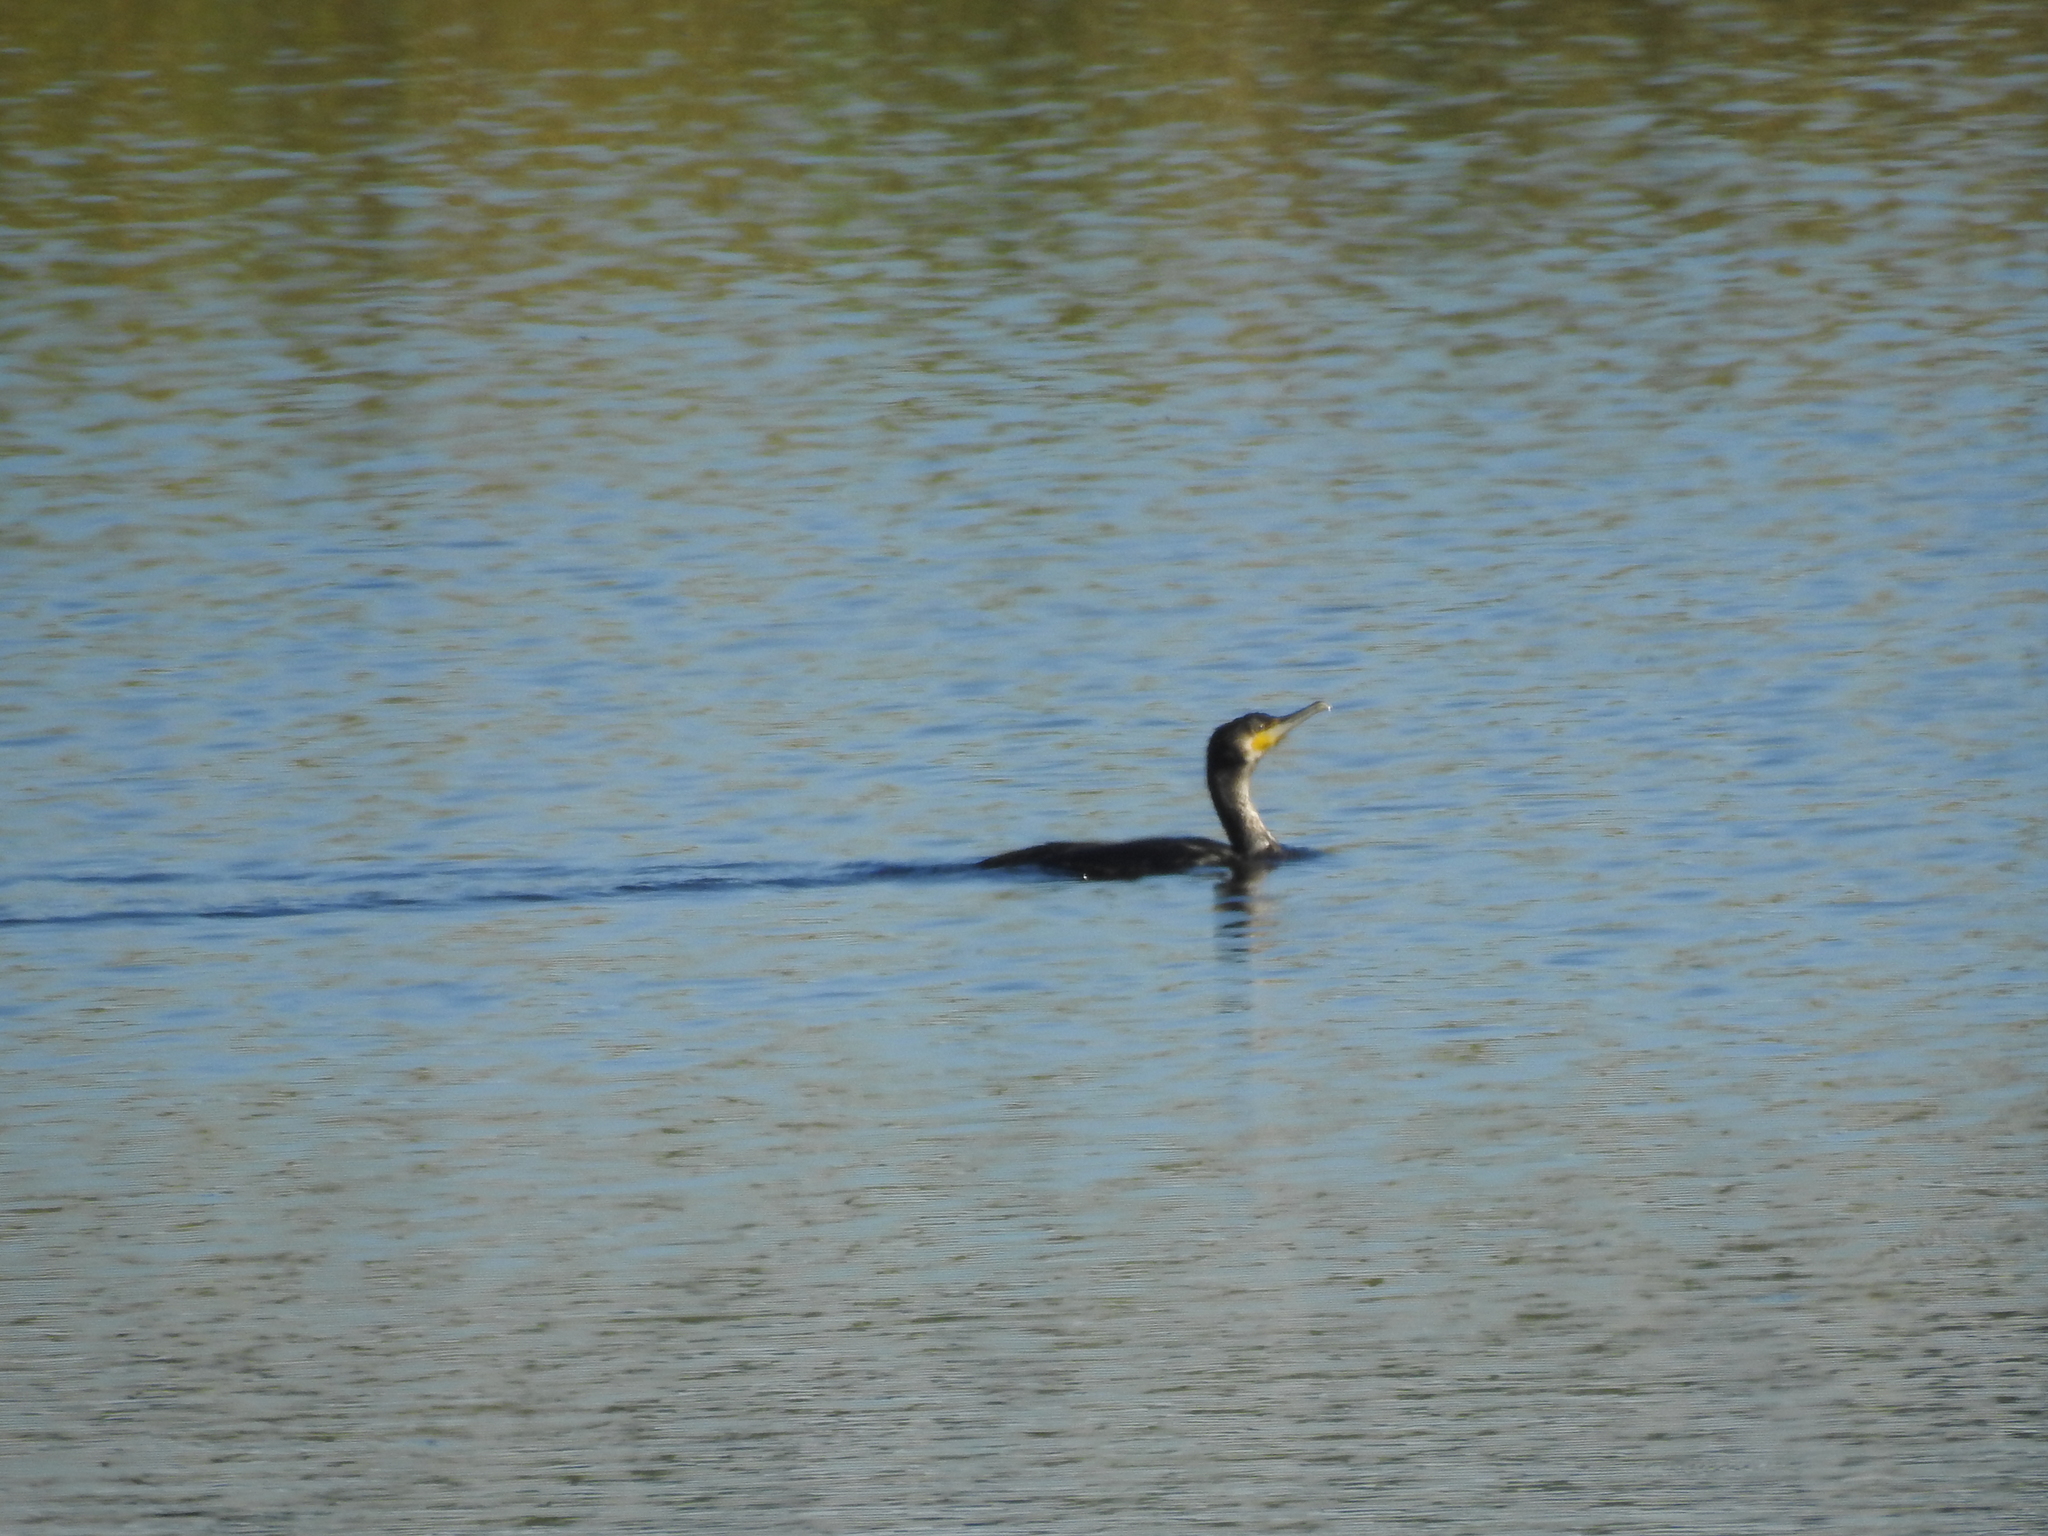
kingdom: Animalia
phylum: Chordata
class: Aves
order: Suliformes
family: Phalacrocoracidae
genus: Phalacrocorax
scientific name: Phalacrocorax carbo
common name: Great cormorant
